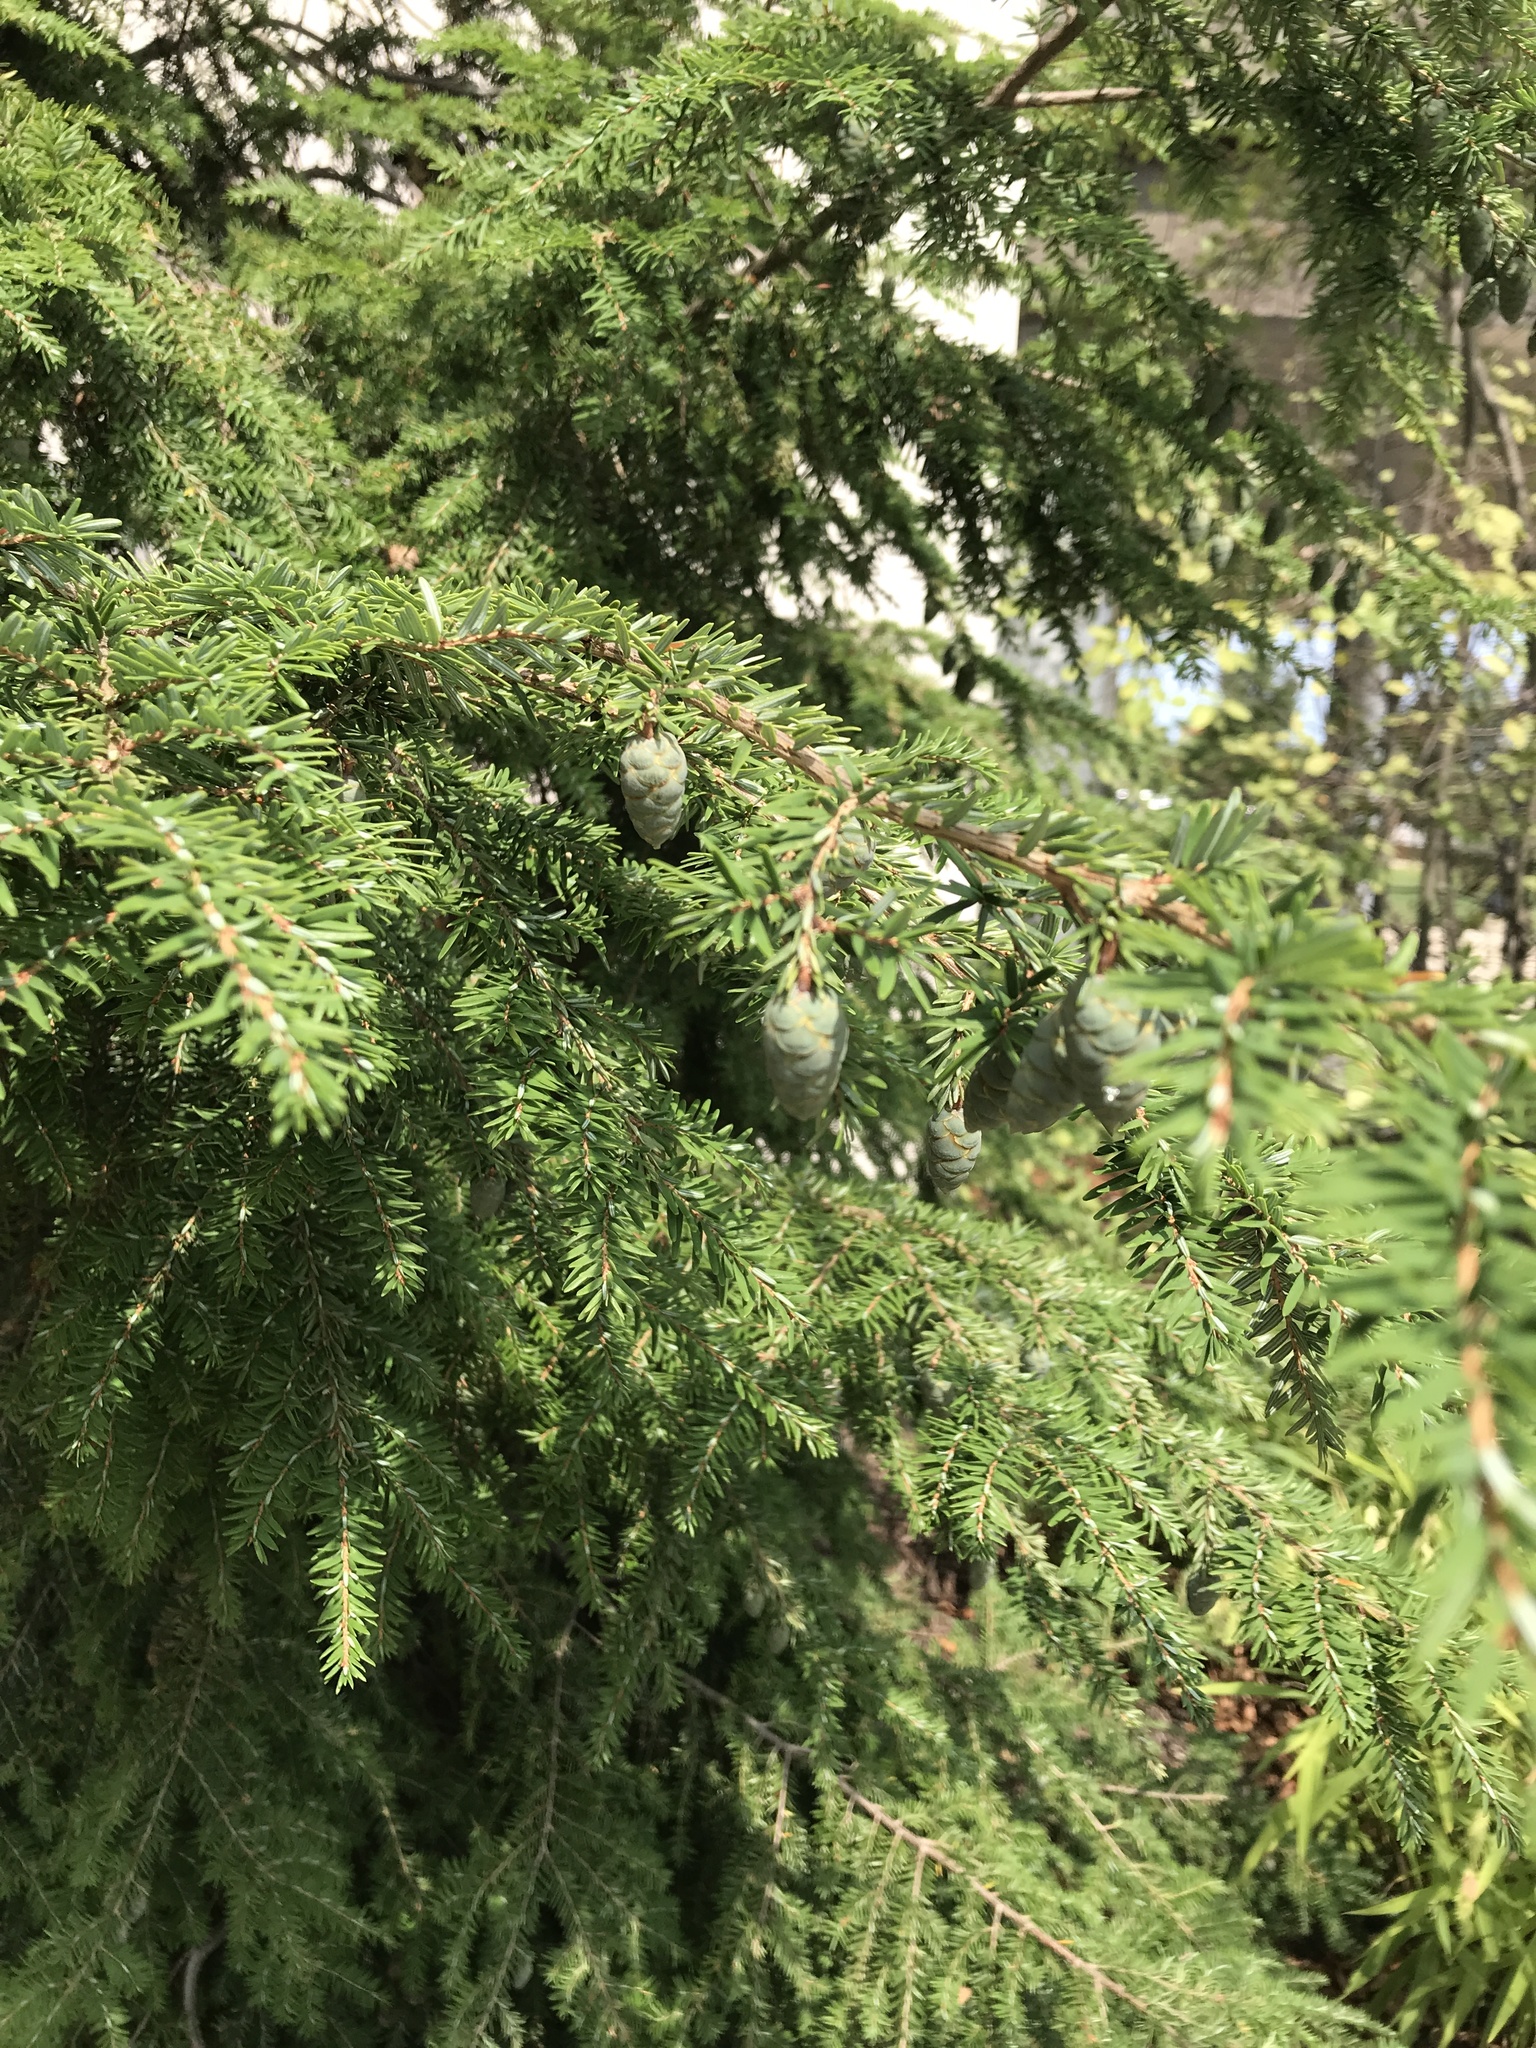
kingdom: Plantae
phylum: Tracheophyta
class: Pinopsida
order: Pinales
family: Pinaceae
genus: Tsuga
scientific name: Tsuga canadensis
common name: Eastern hemlock
